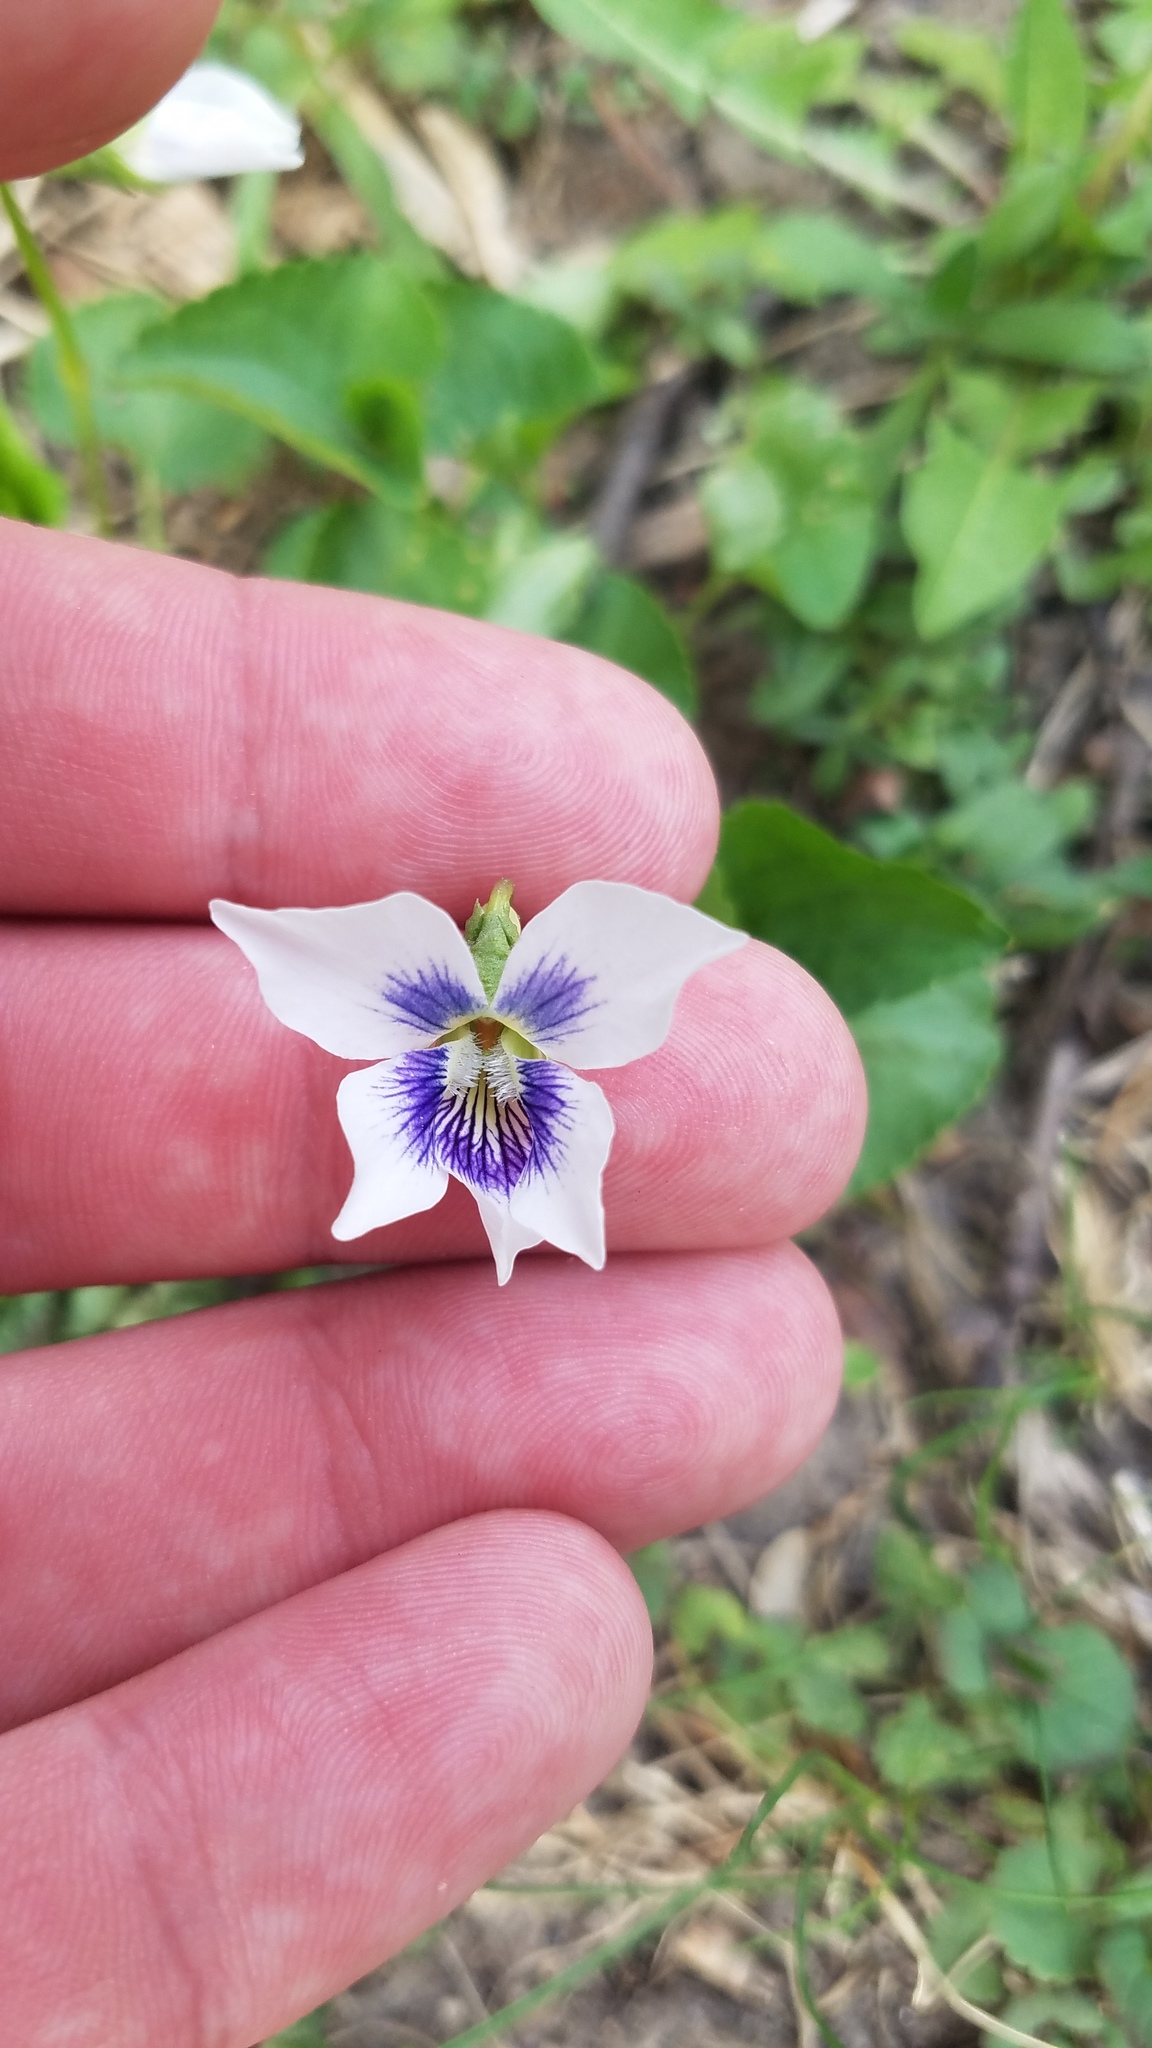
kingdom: Plantae
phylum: Tracheophyta
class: Magnoliopsida
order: Malpighiales
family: Violaceae
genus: Viola
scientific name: Viola sororia
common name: Dooryard violet
